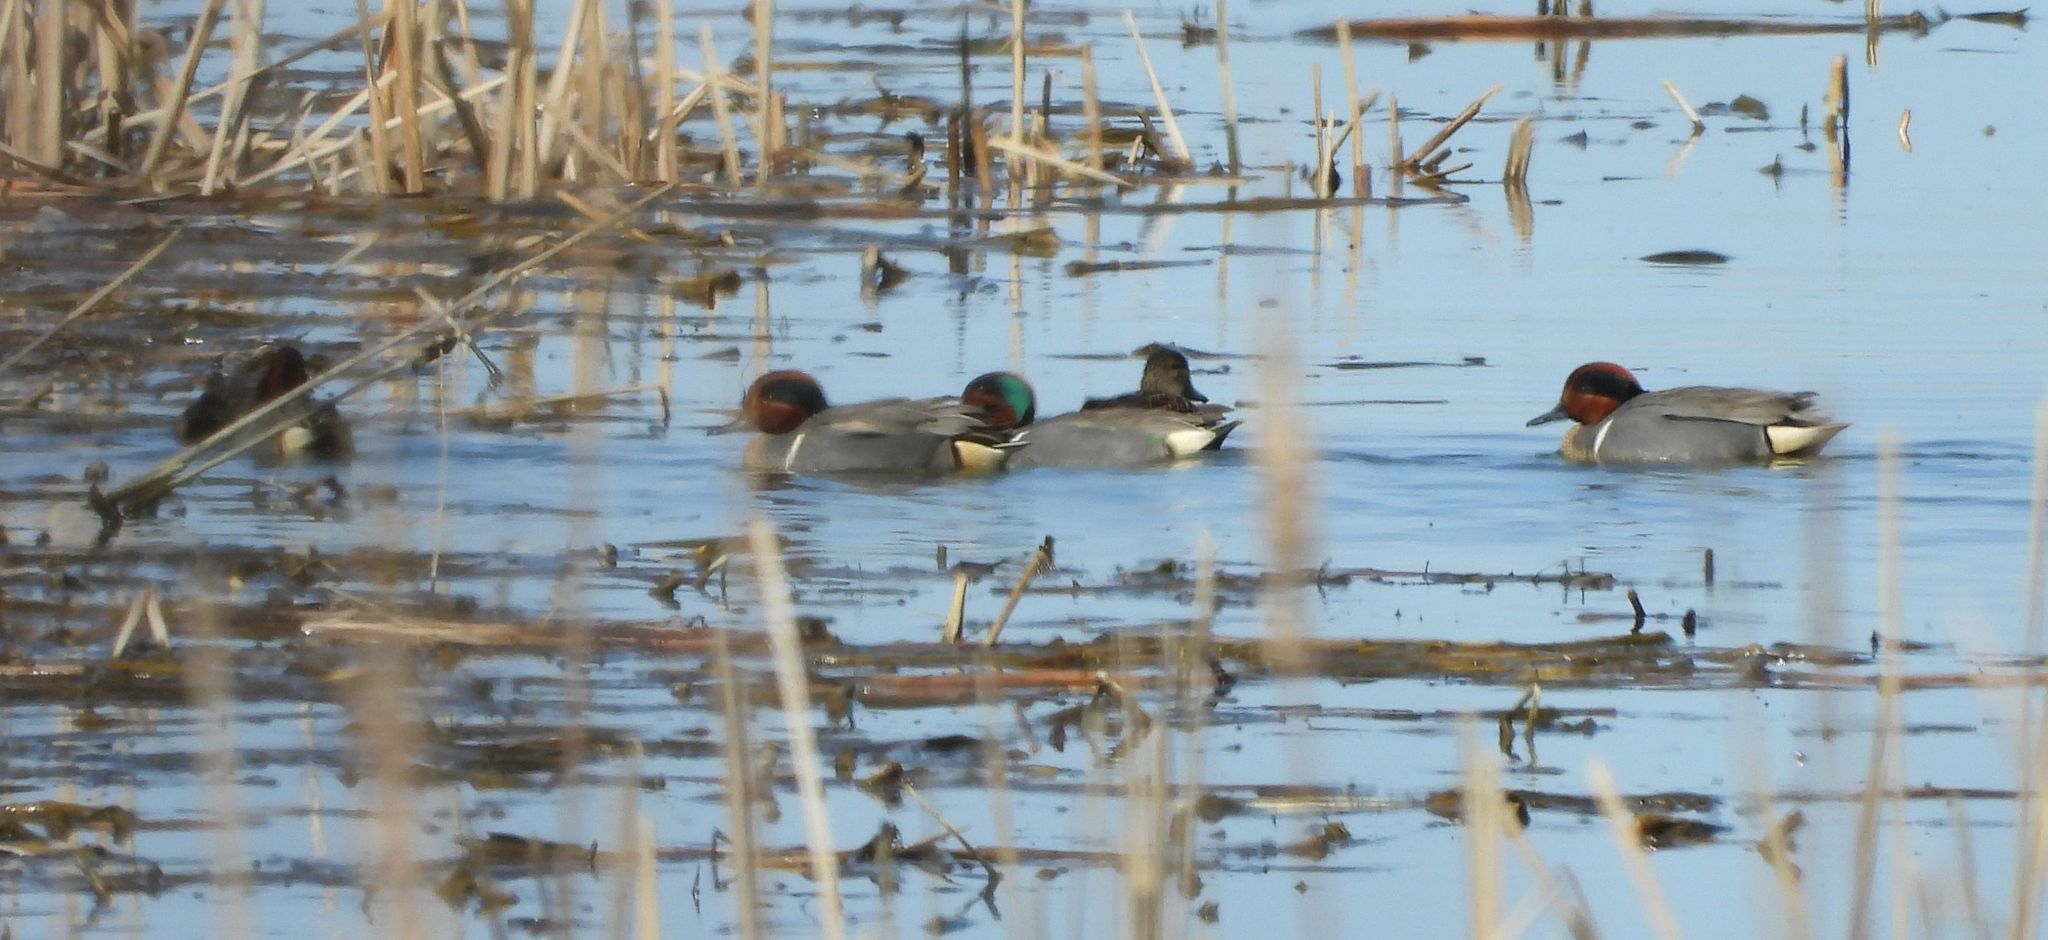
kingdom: Animalia
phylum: Chordata
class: Aves
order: Anseriformes
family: Anatidae
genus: Anas
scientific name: Anas crecca
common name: Eurasian teal
